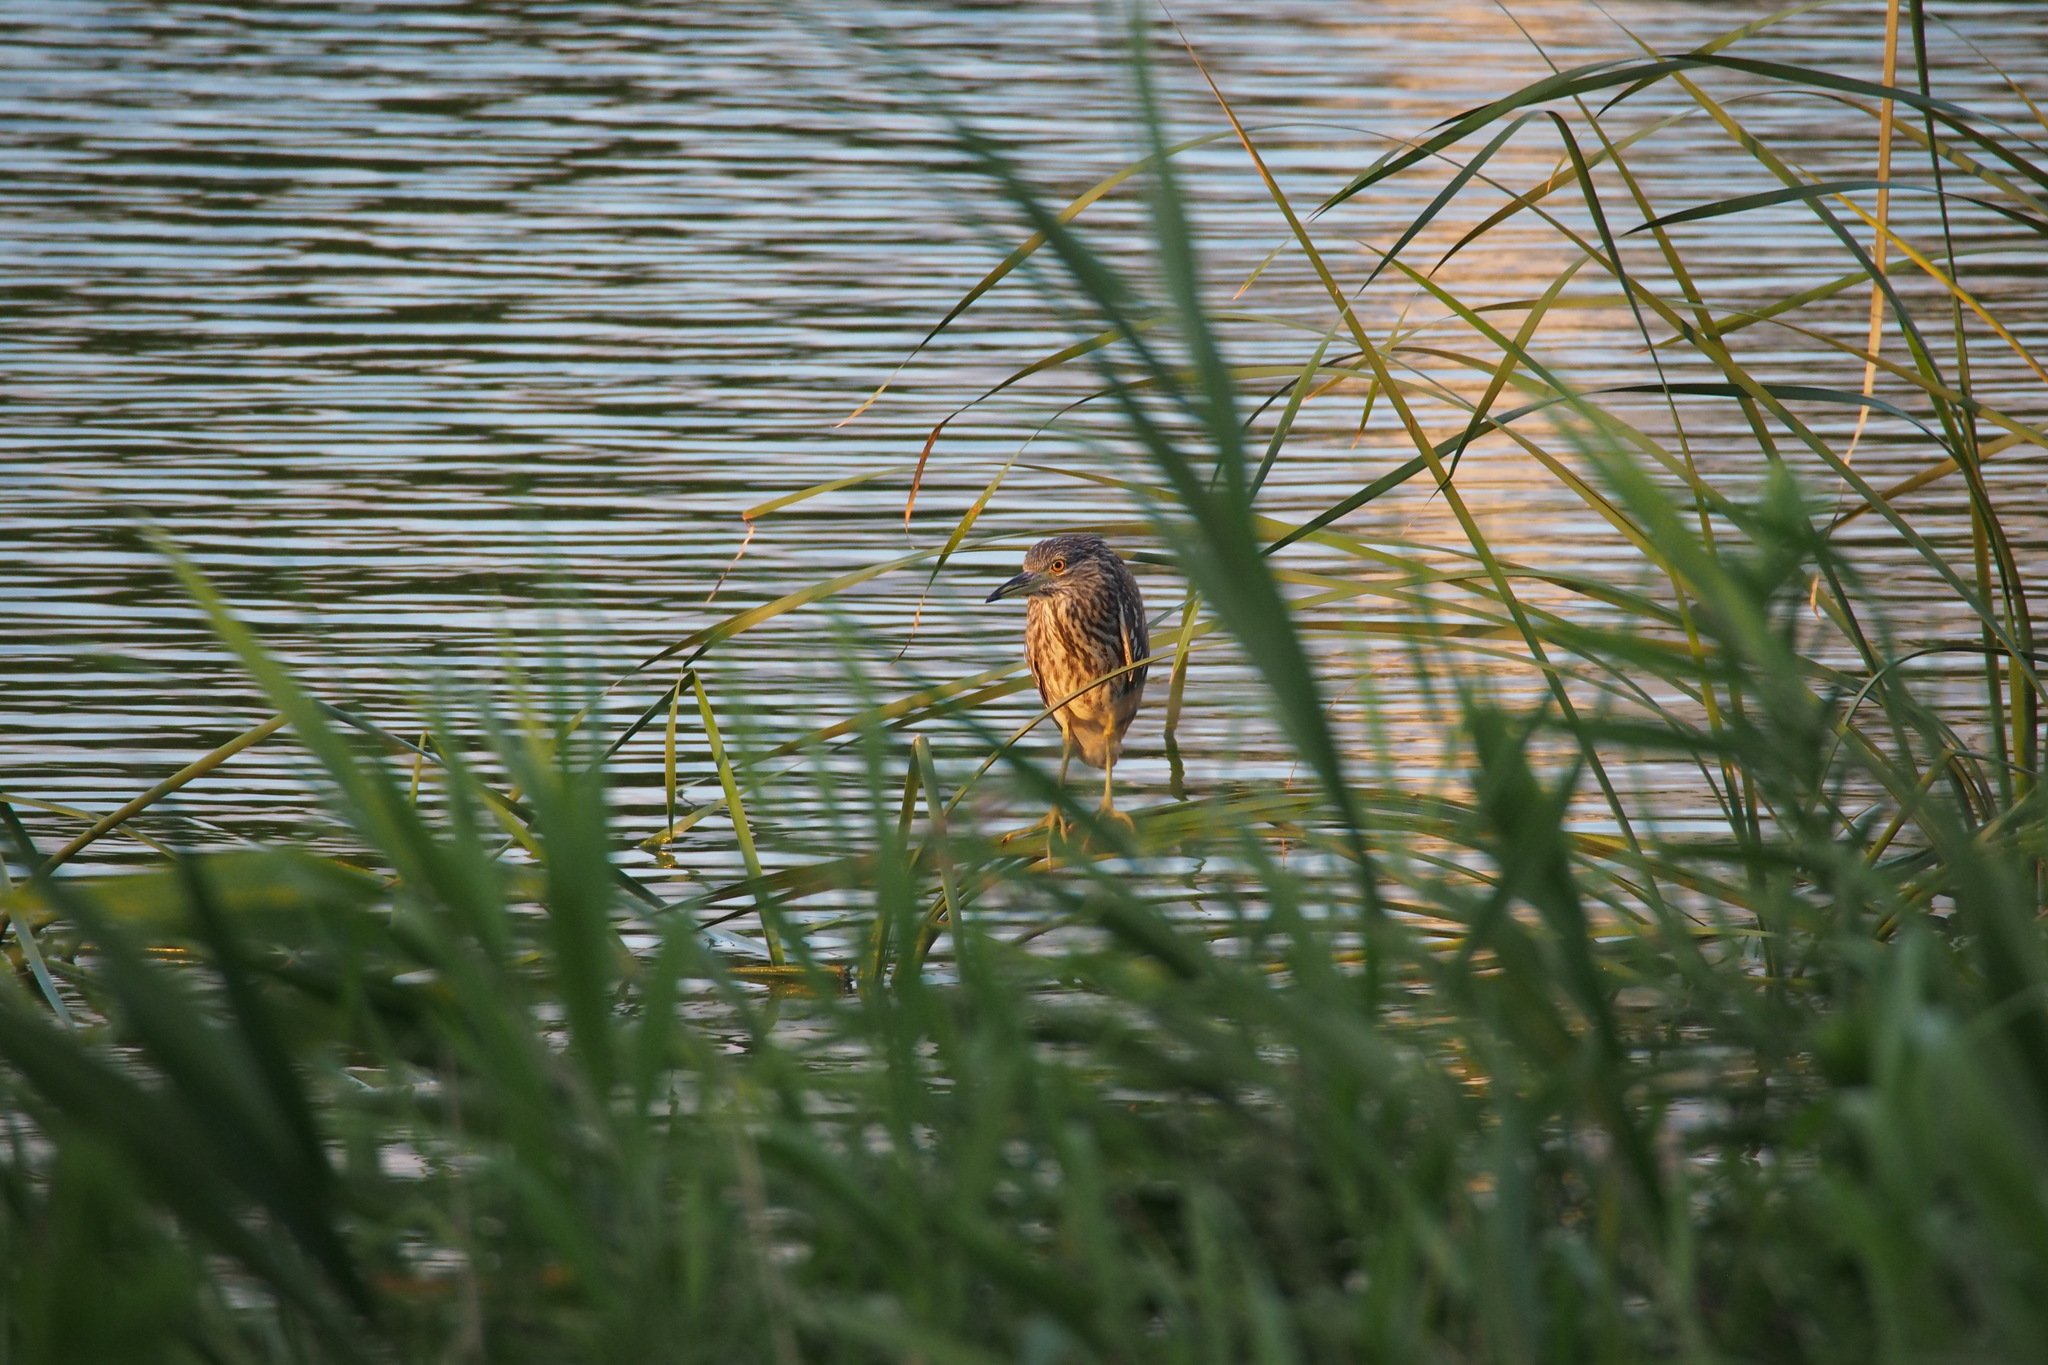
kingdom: Animalia
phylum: Chordata
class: Aves
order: Pelecaniformes
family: Ardeidae
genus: Nycticorax
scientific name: Nycticorax nycticorax
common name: Black-crowned night heron
